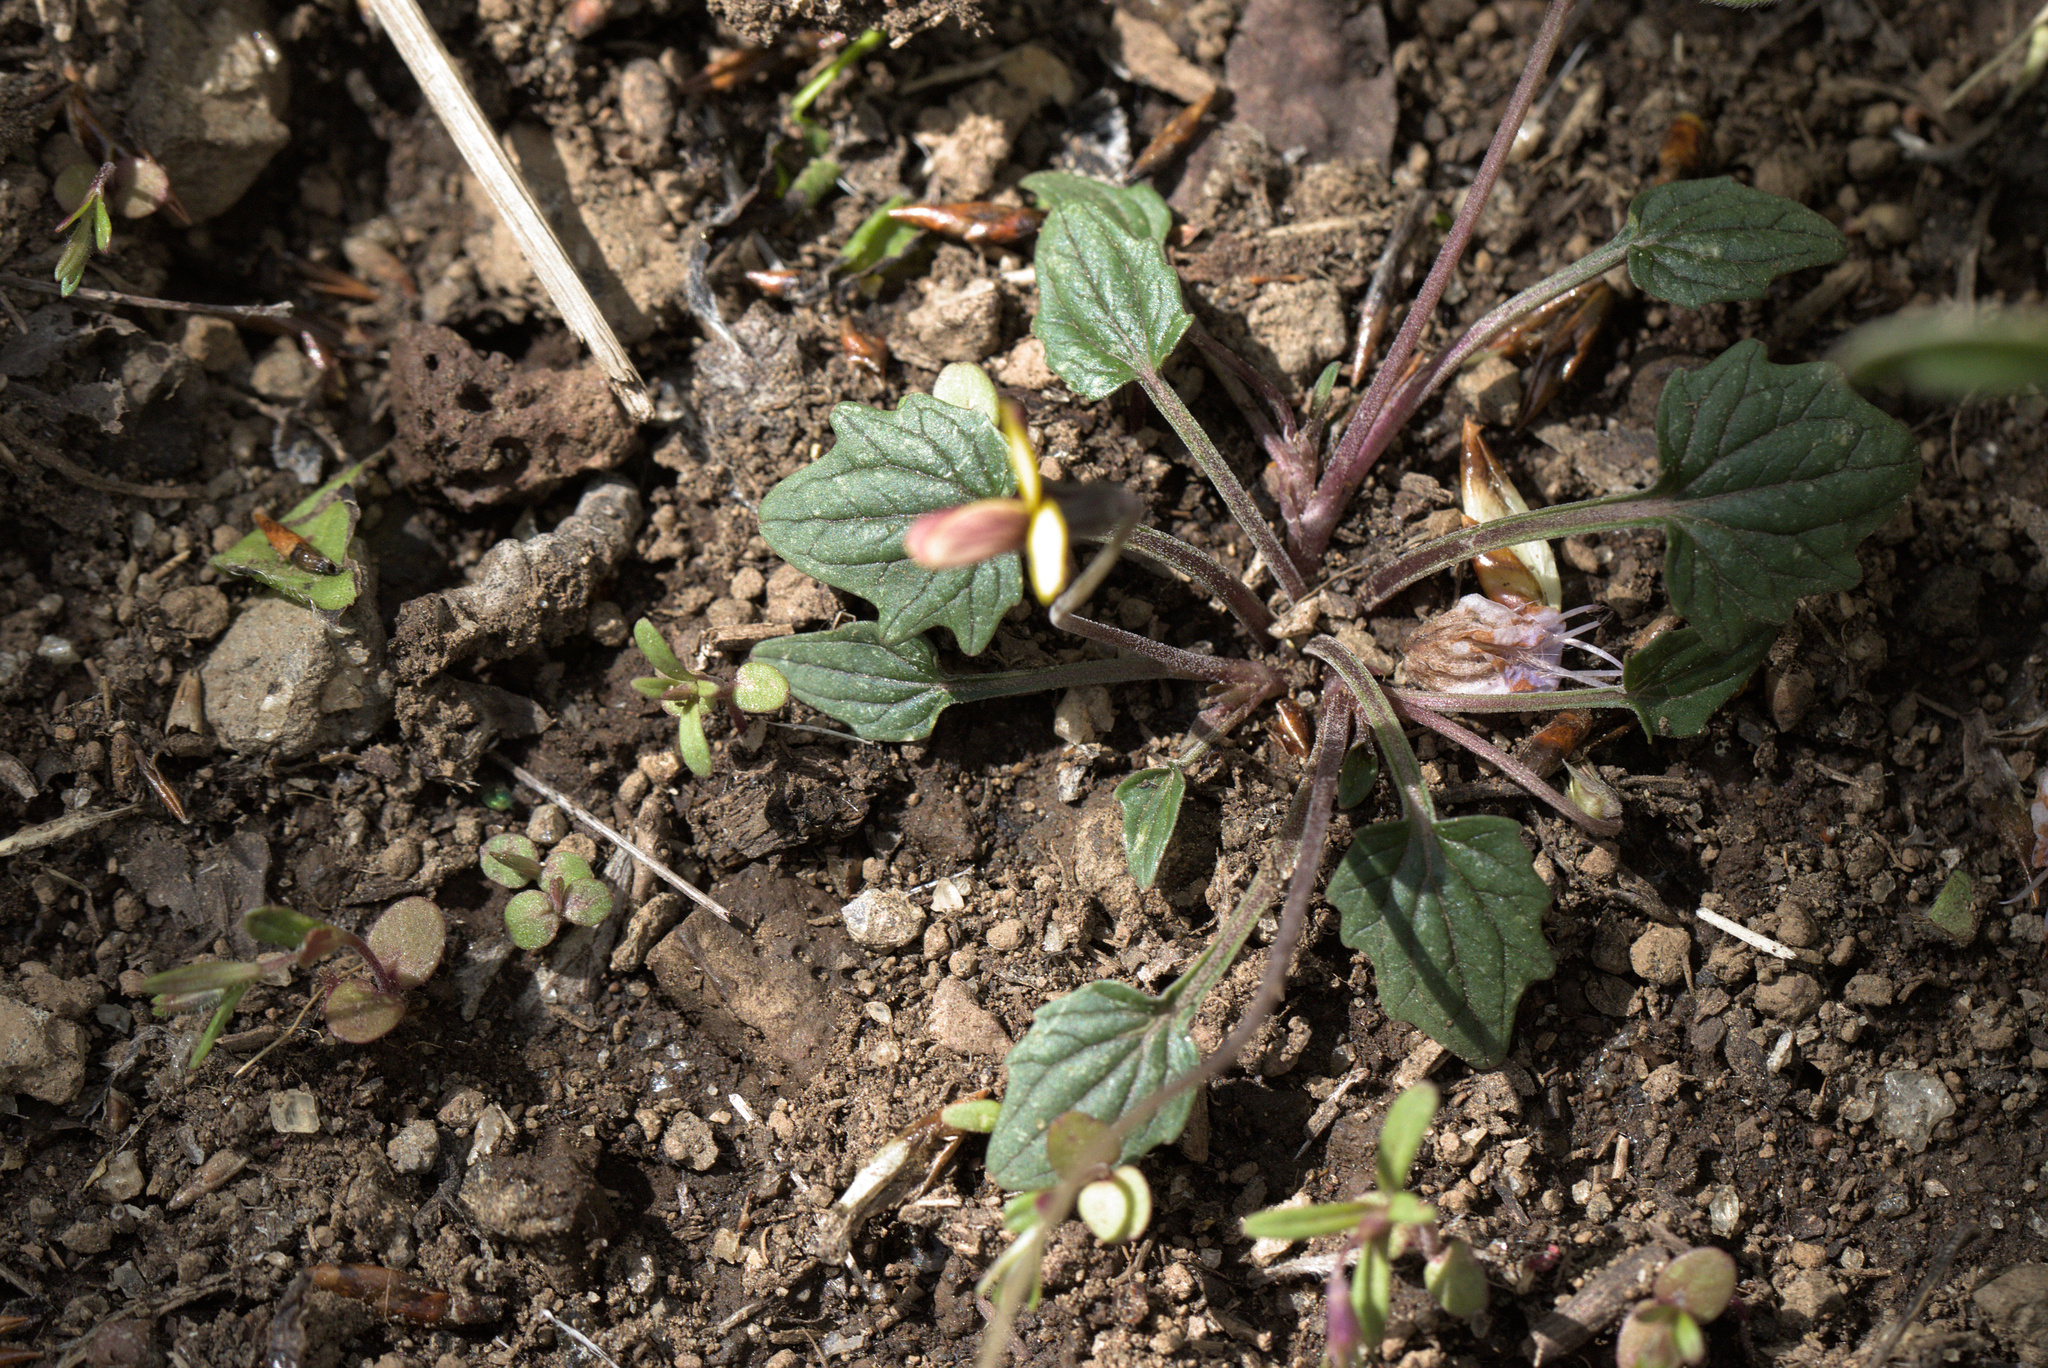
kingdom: Plantae
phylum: Tracheophyta
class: Magnoliopsida
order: Malpighiales
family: Violaceae
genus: Viola
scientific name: Viola purpurea
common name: Pine violet
